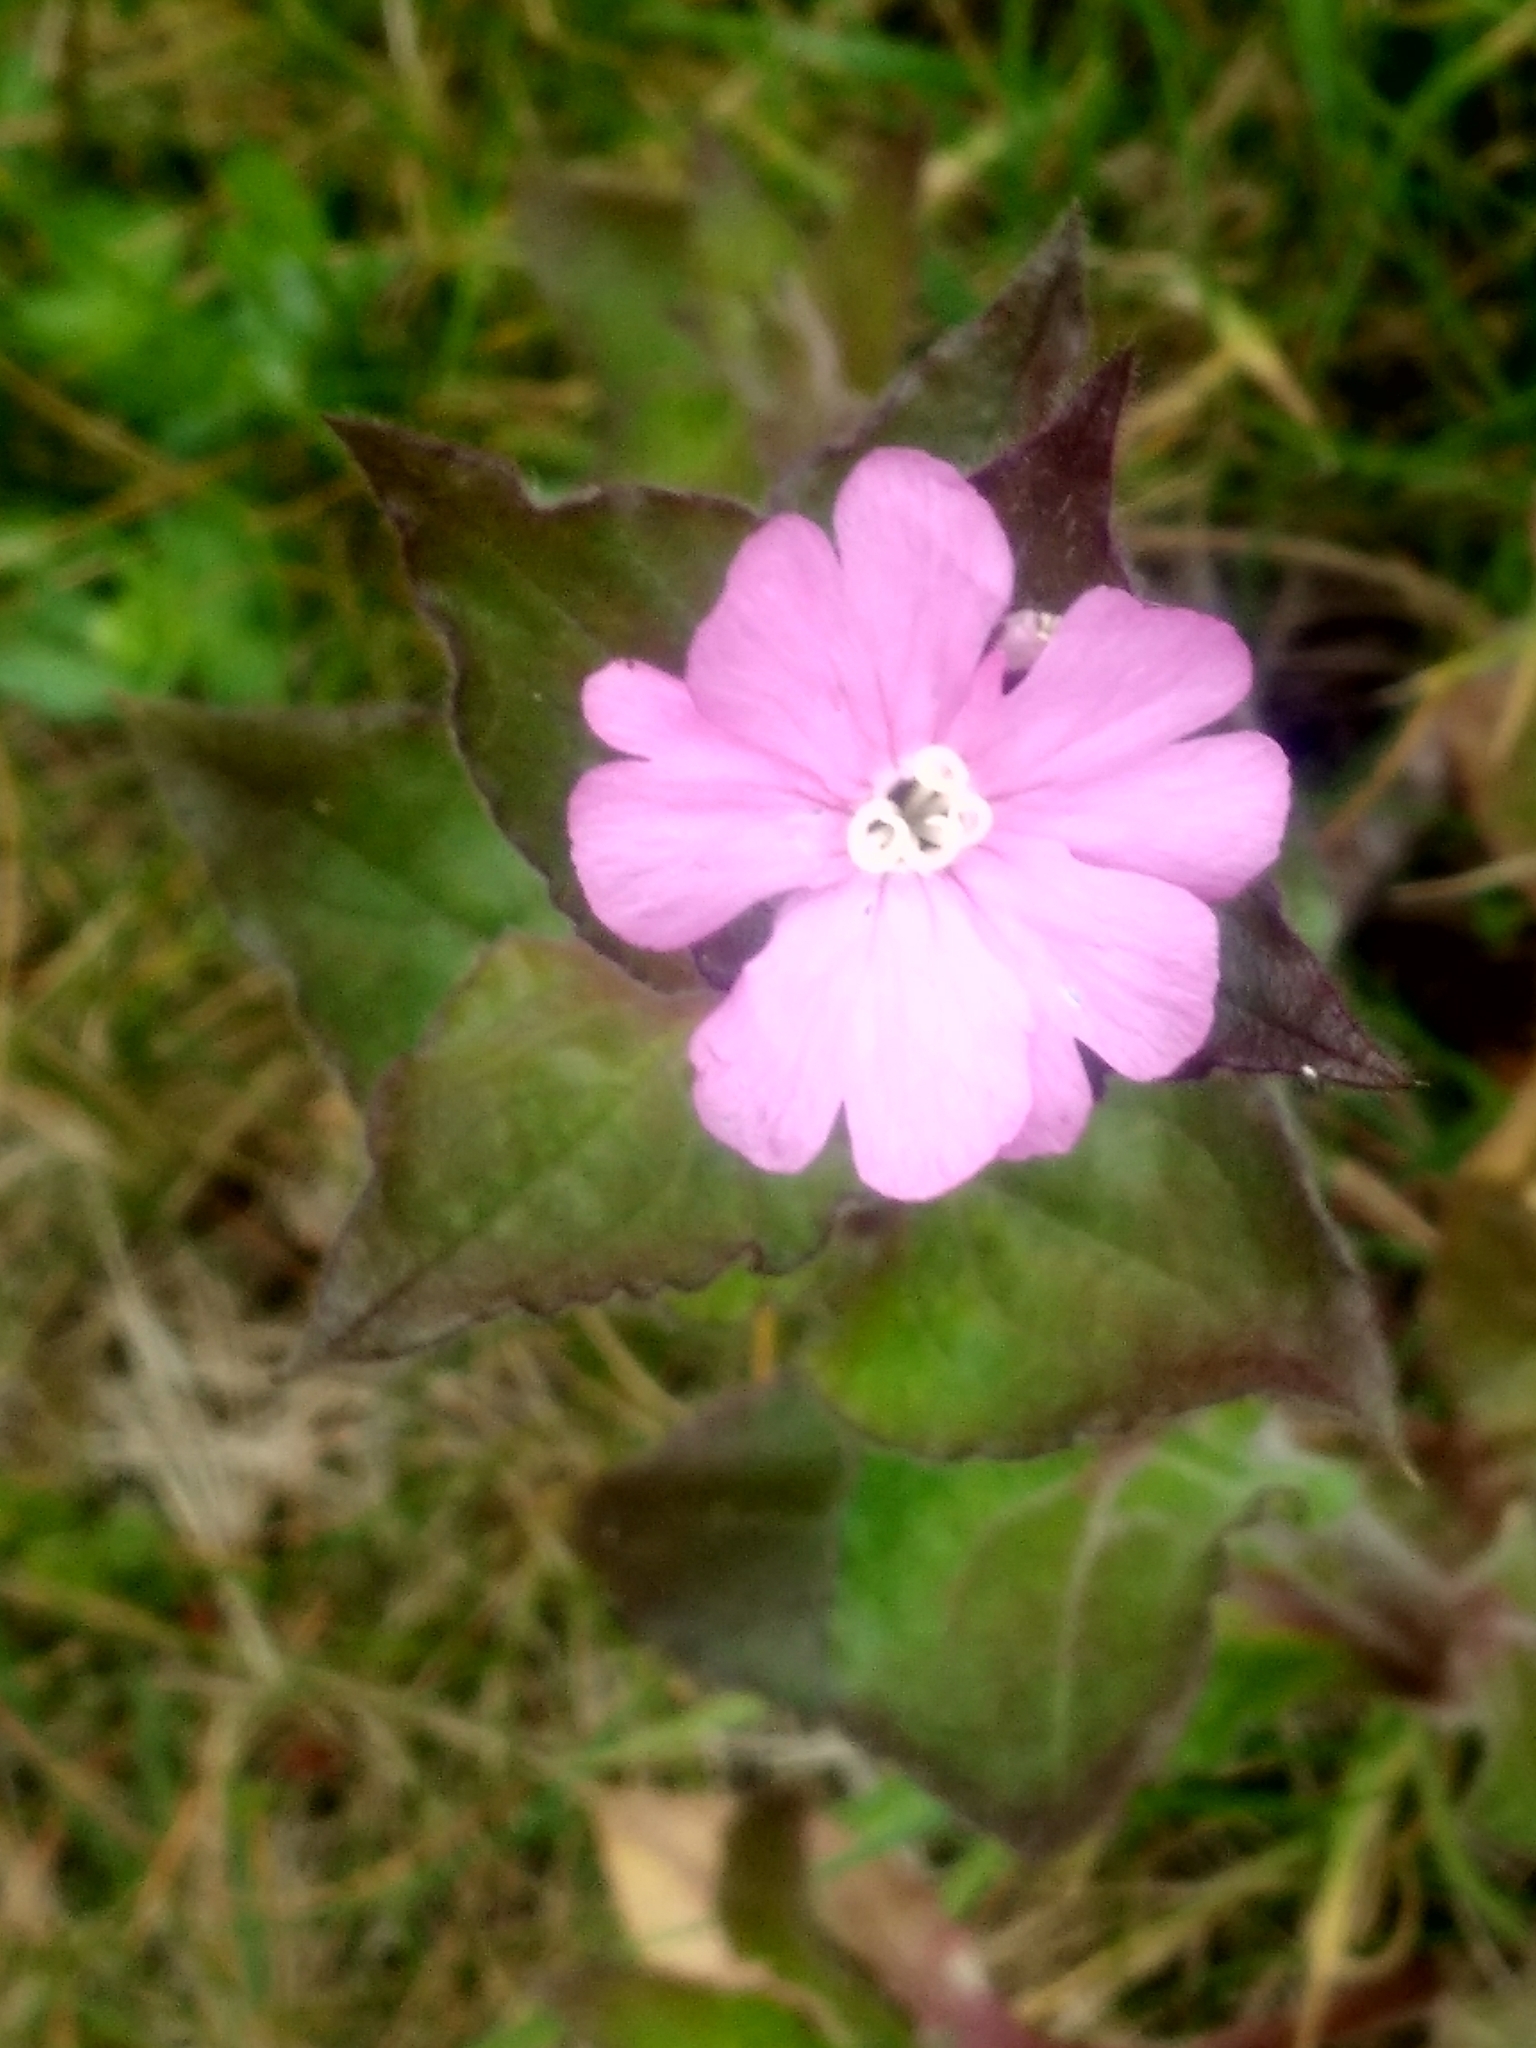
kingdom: Plantae
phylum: Tracheophyta
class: Magnoliopsida
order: Caryophyllales
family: Caryophyllaceae
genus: Silene
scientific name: Silene dioica
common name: Red campion
